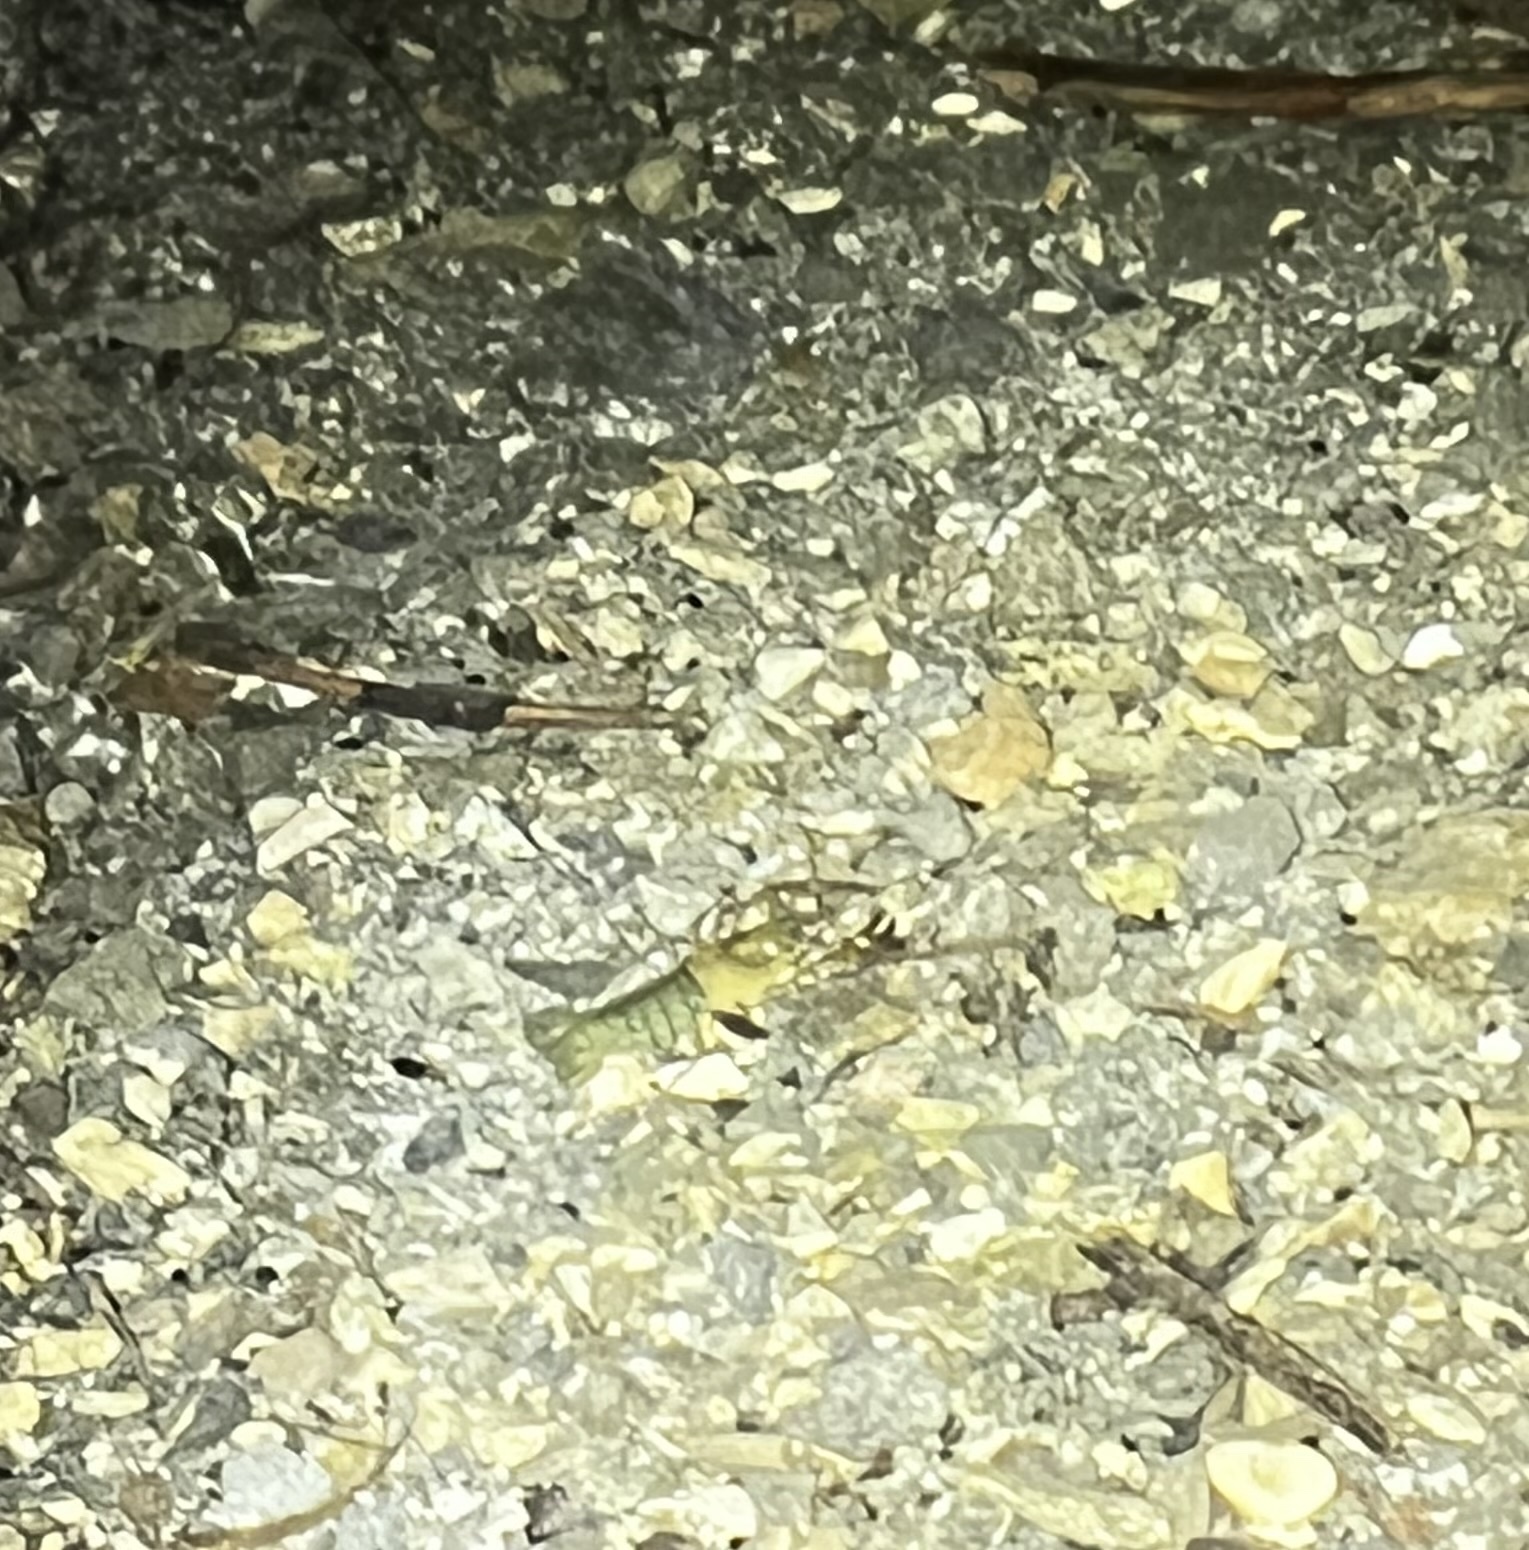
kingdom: Animalia
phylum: Arthropoda
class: Malacostraca
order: Decapoda
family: Astacidae
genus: Pacifastacus
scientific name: Pacifastacus leniusculus
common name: Signal crayfish
